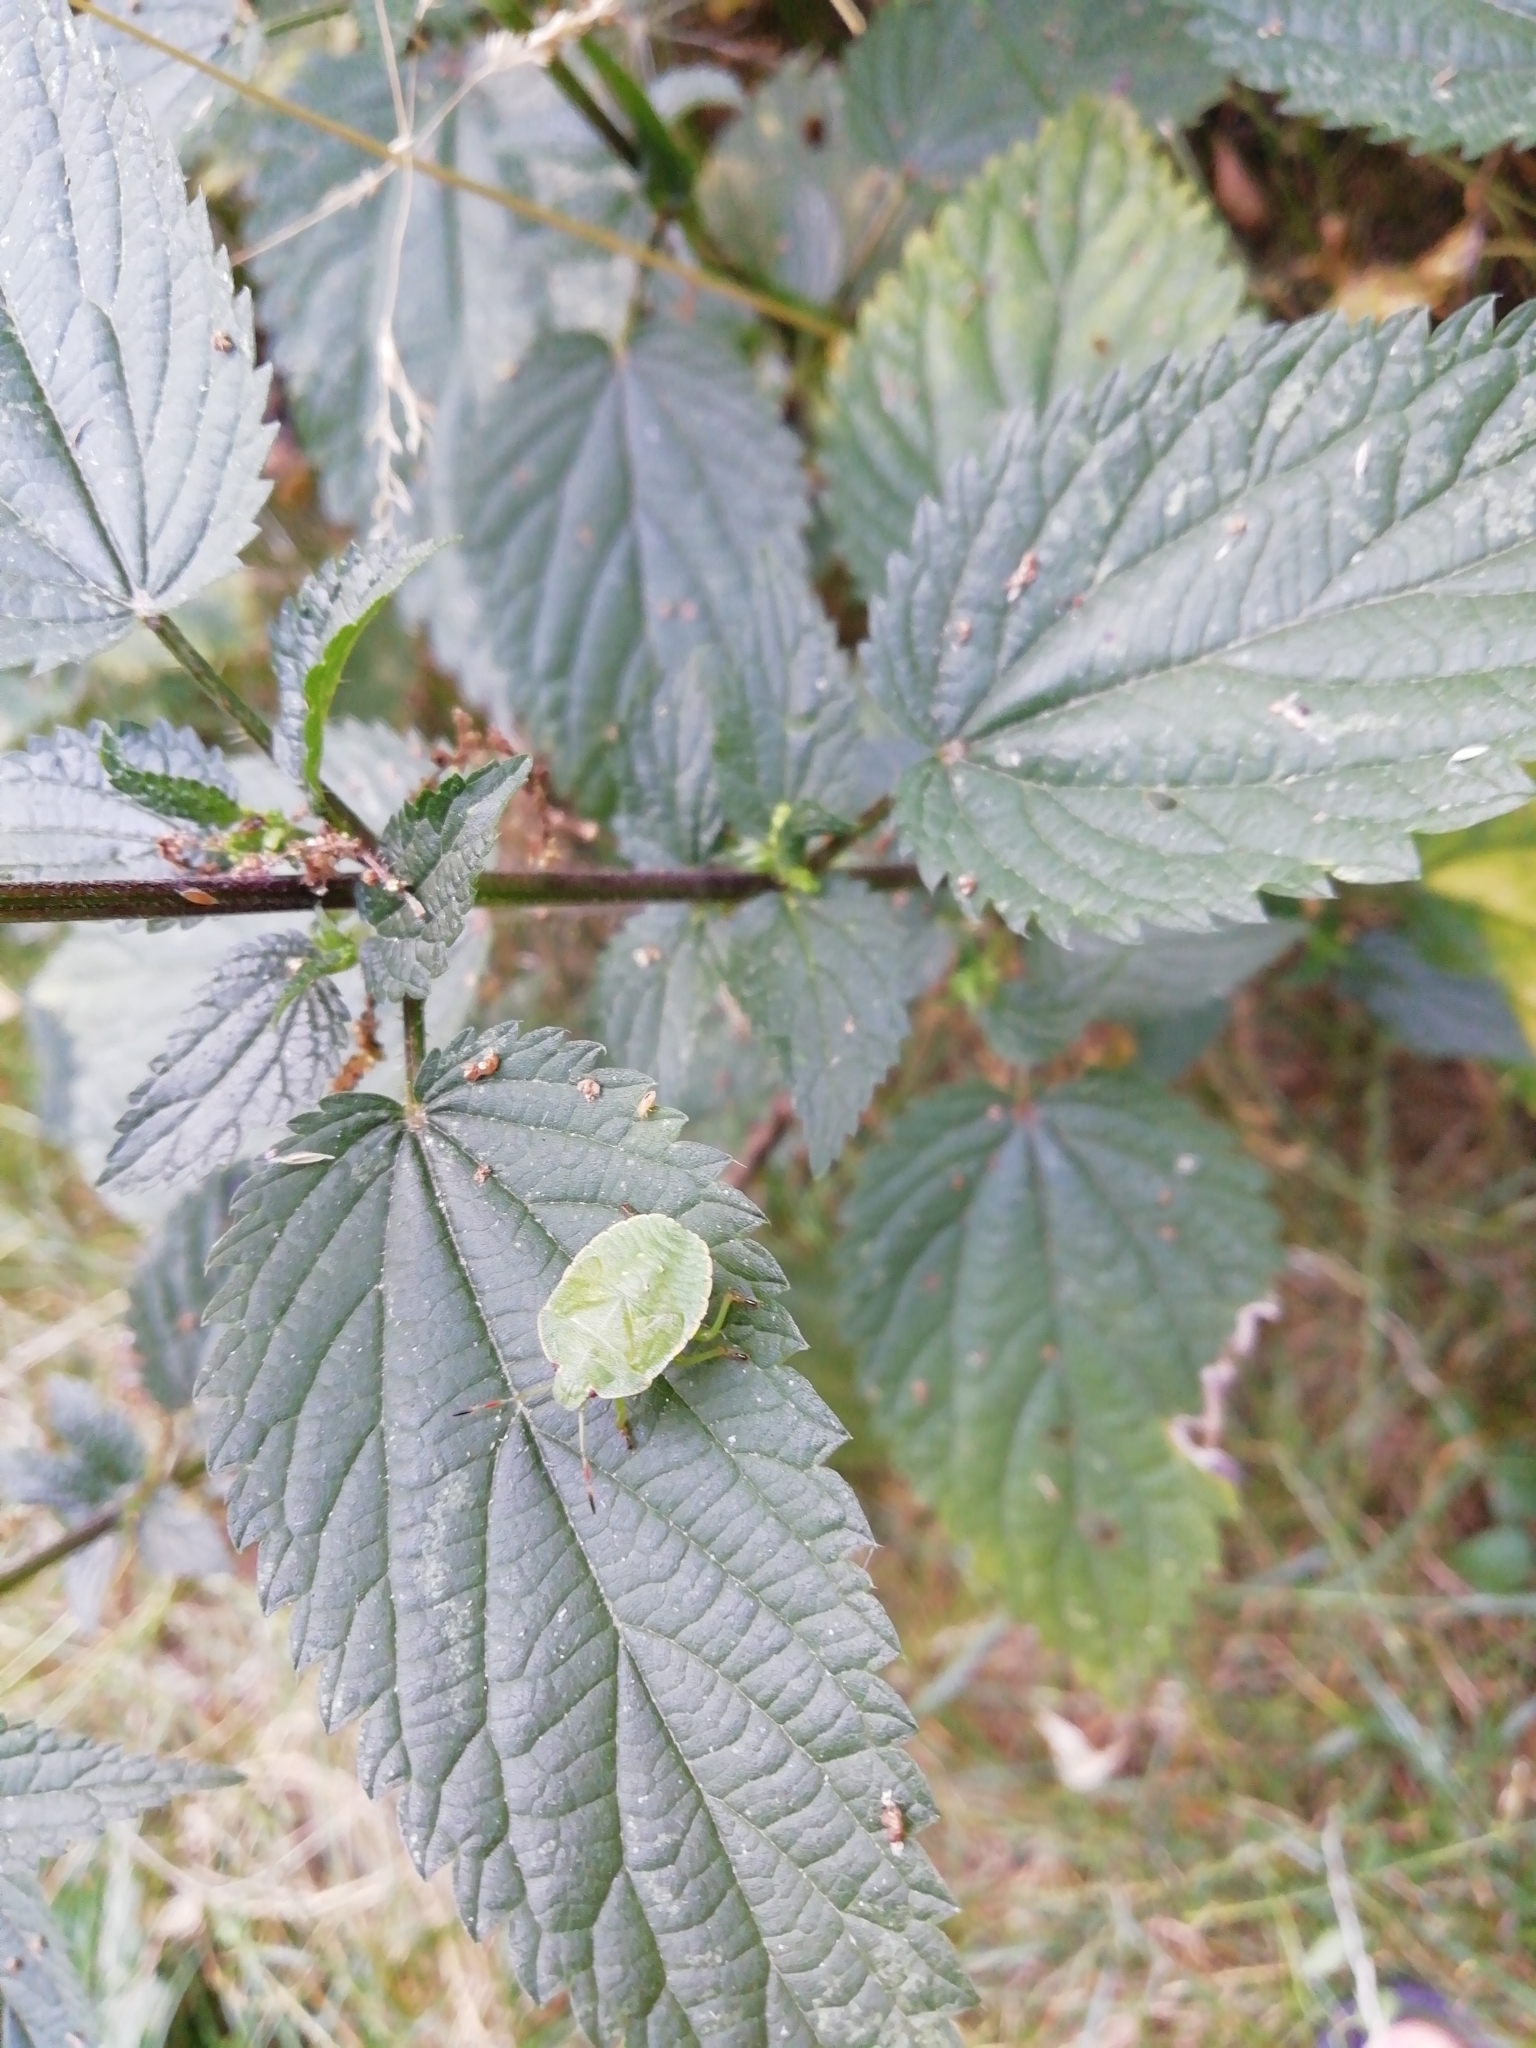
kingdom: Animalia
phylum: Arthropoda
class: Insecta
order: Hemiptera
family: Pentatomidae
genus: Palomena
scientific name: Palomena prasina
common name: Green shieldbug
